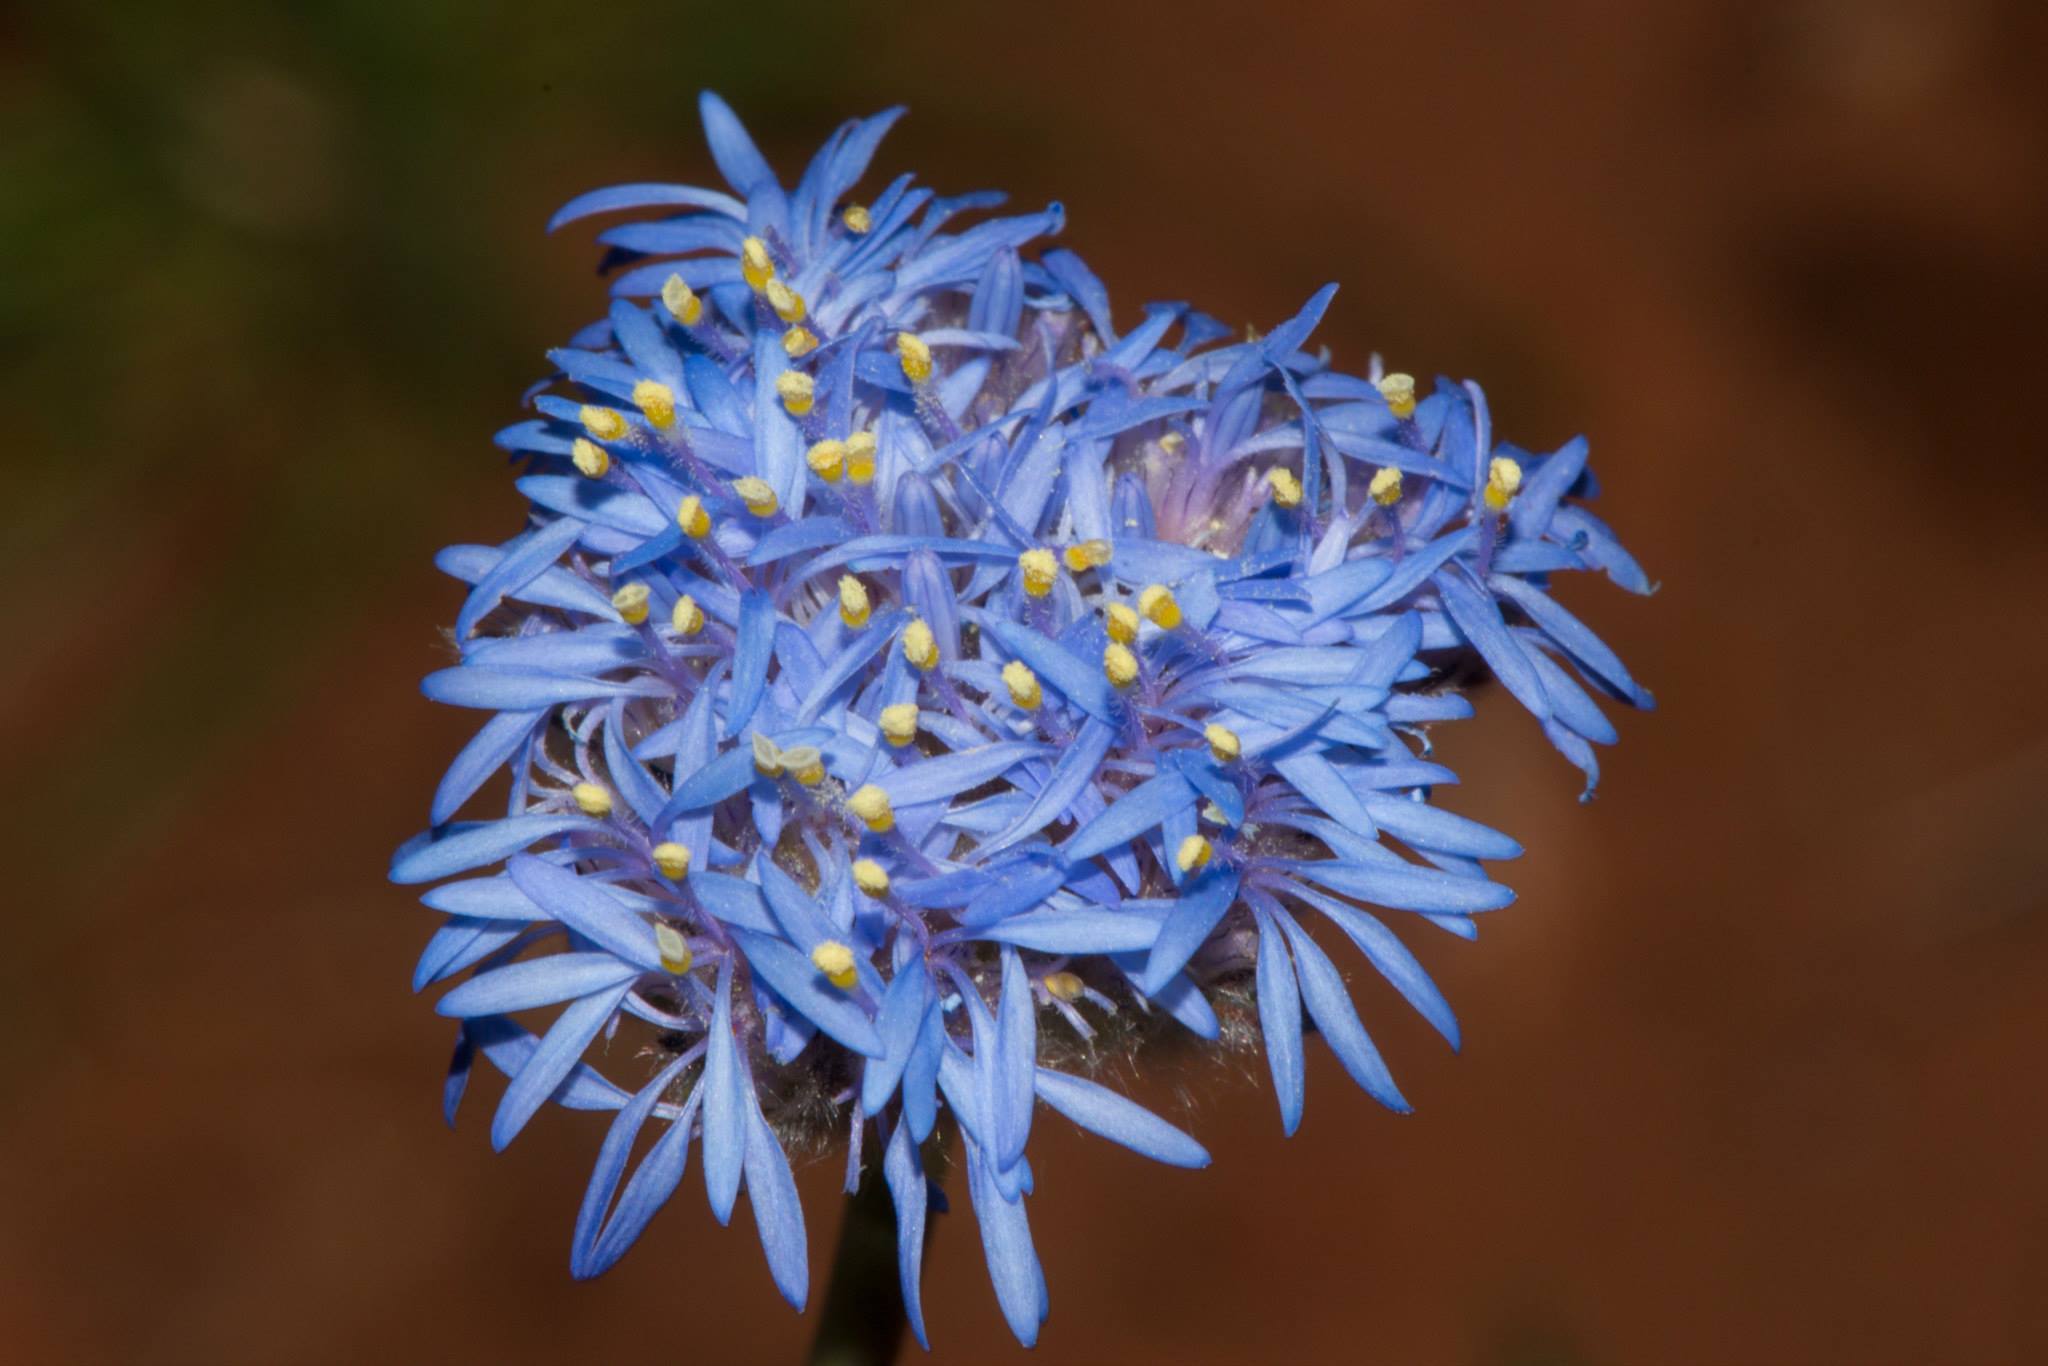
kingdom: Plantae
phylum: Tracheophyta
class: Magnoliopsida
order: Asterales
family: Goodeniaceae
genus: Brunonia
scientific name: Brunonia australis
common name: Blue pincushion
